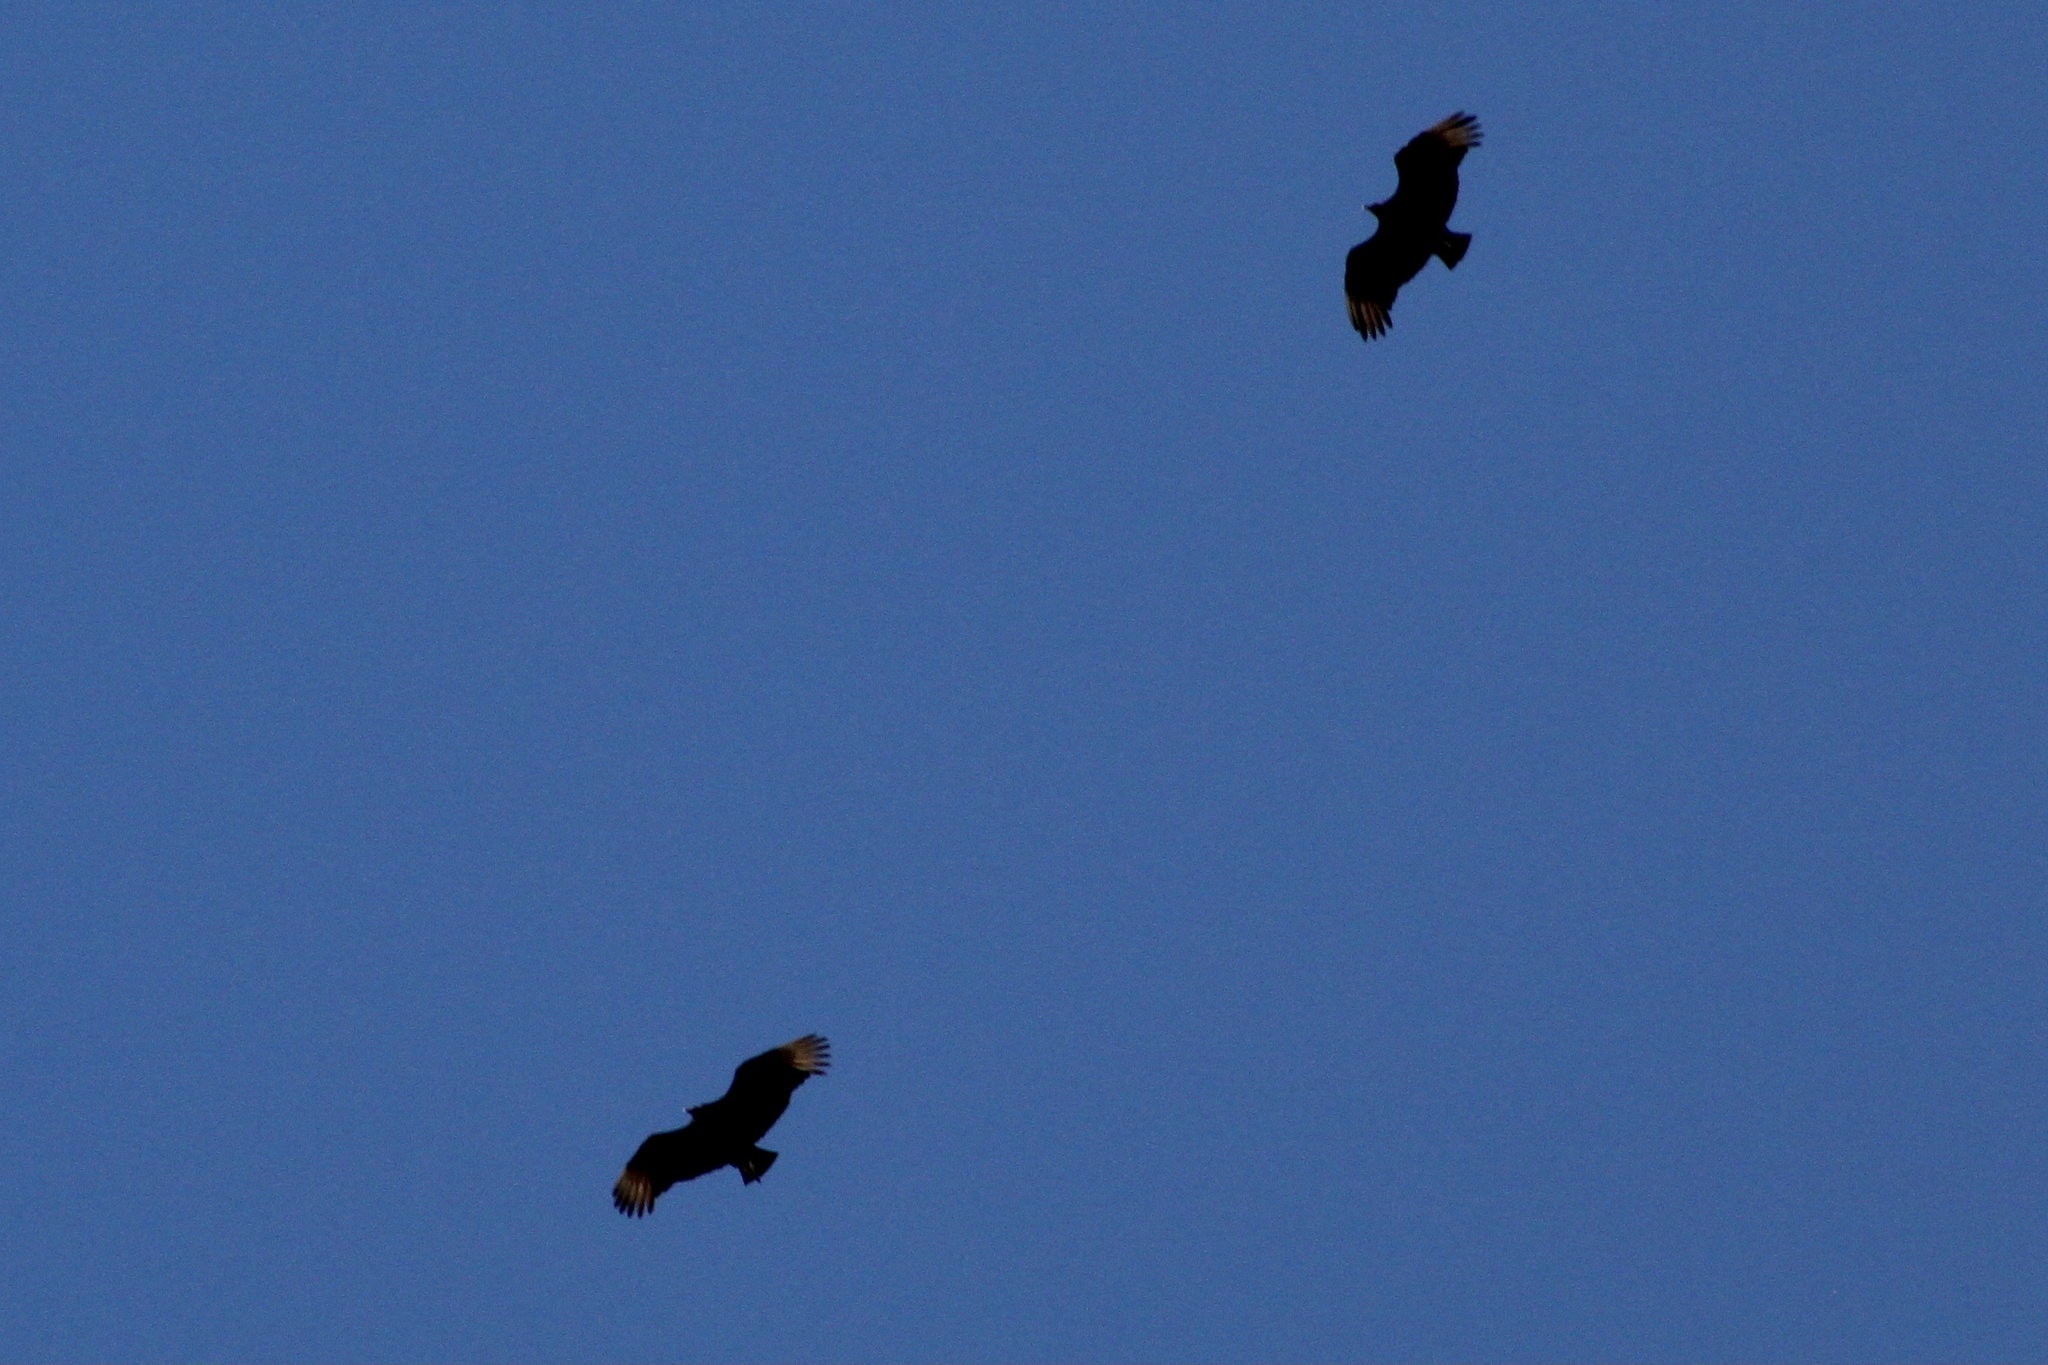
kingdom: Animalia
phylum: Chordata
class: Aves
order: Accipitriformes
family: Cathartidae
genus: Coragyps
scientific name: Coragyps atratus
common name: Black vulture
